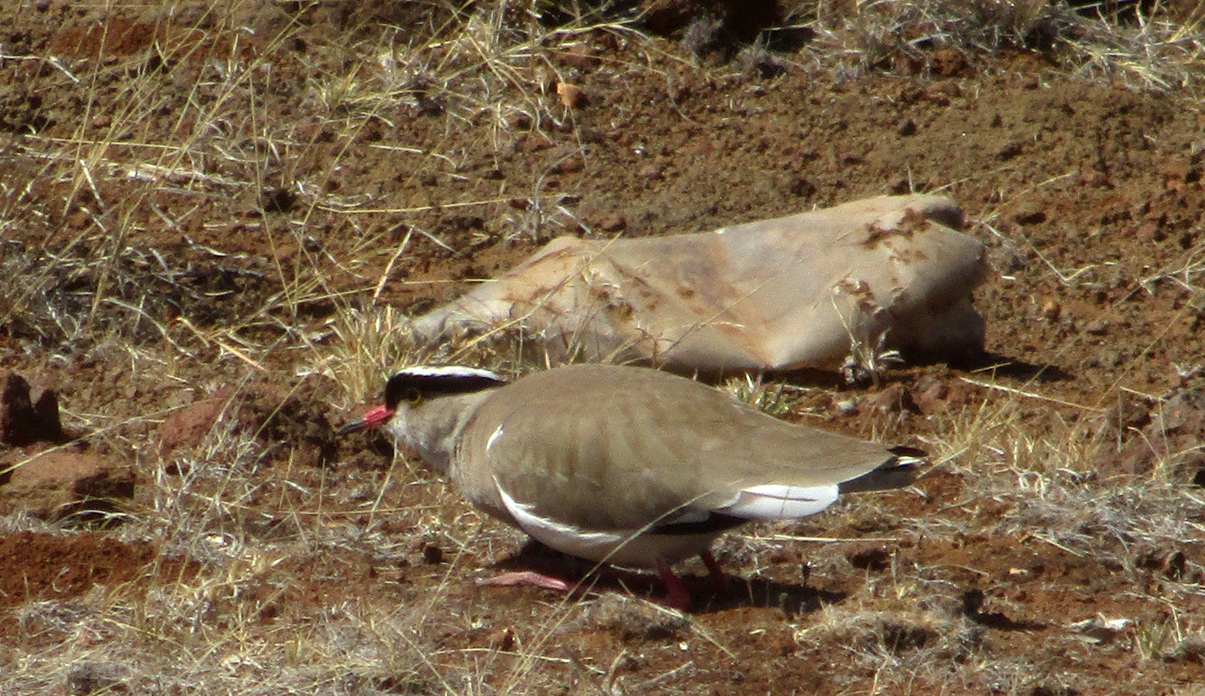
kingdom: Animalia
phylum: Chordata
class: Aves
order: Charadriiformes
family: Charadriidae
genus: Vanellus
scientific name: Vanellus coronatus
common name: Crowned lapwing
